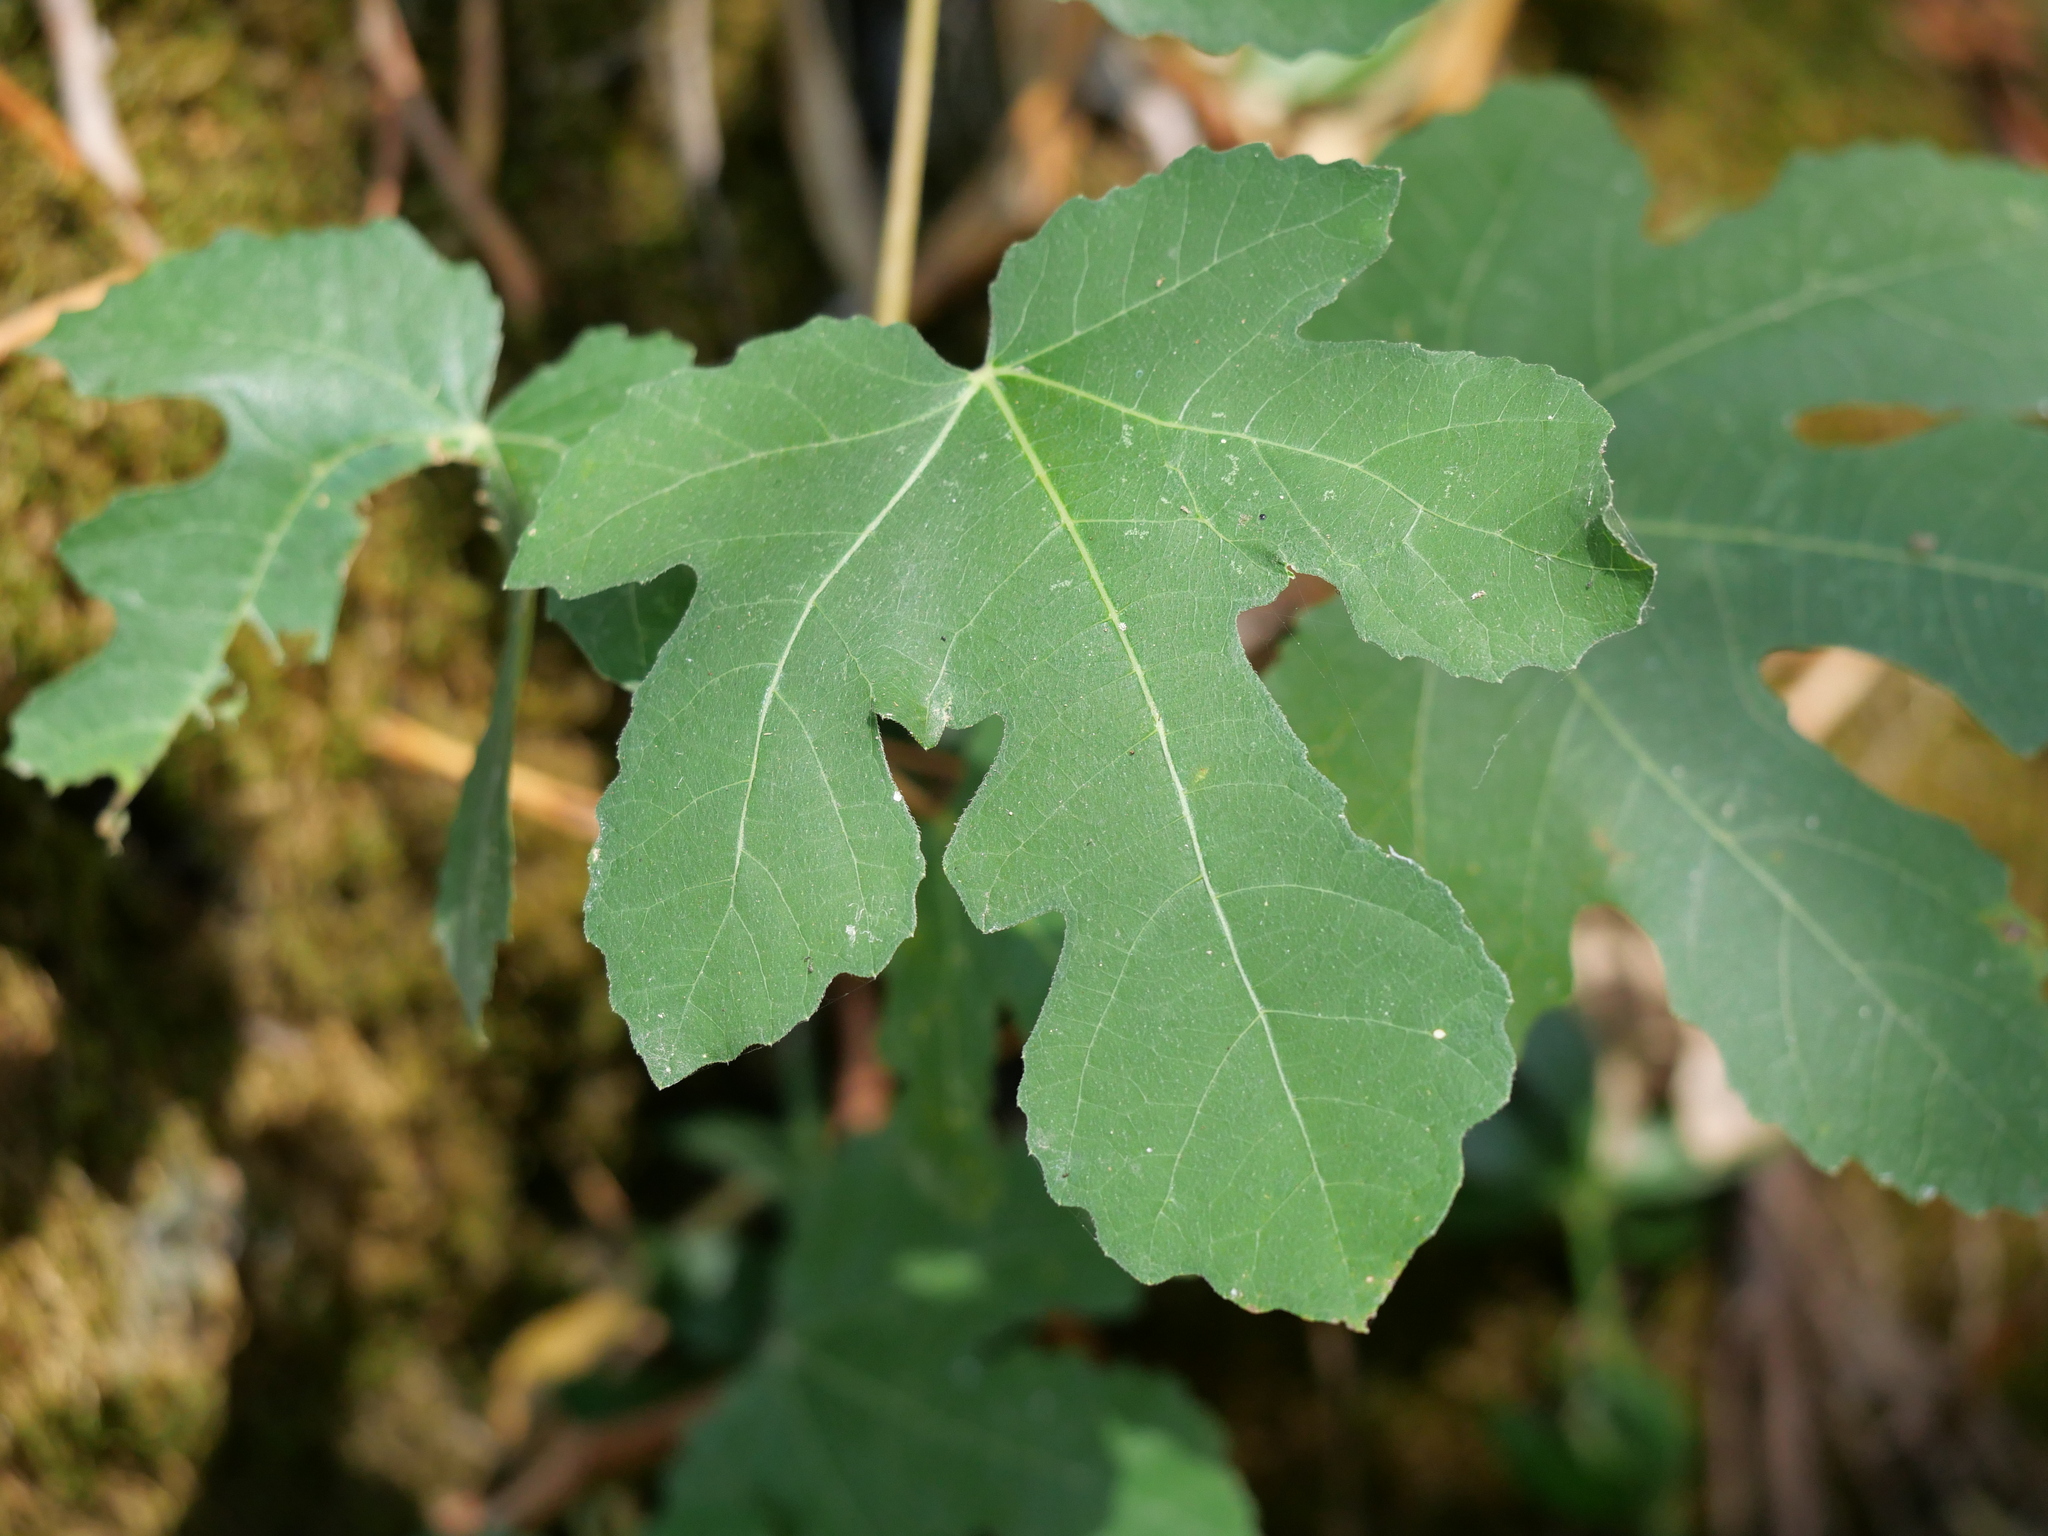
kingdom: Plantae
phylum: Tracheophyta
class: Magnoliopsida
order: Rosales
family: Moraceae
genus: Ficus
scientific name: Ficus carica
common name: Fig
